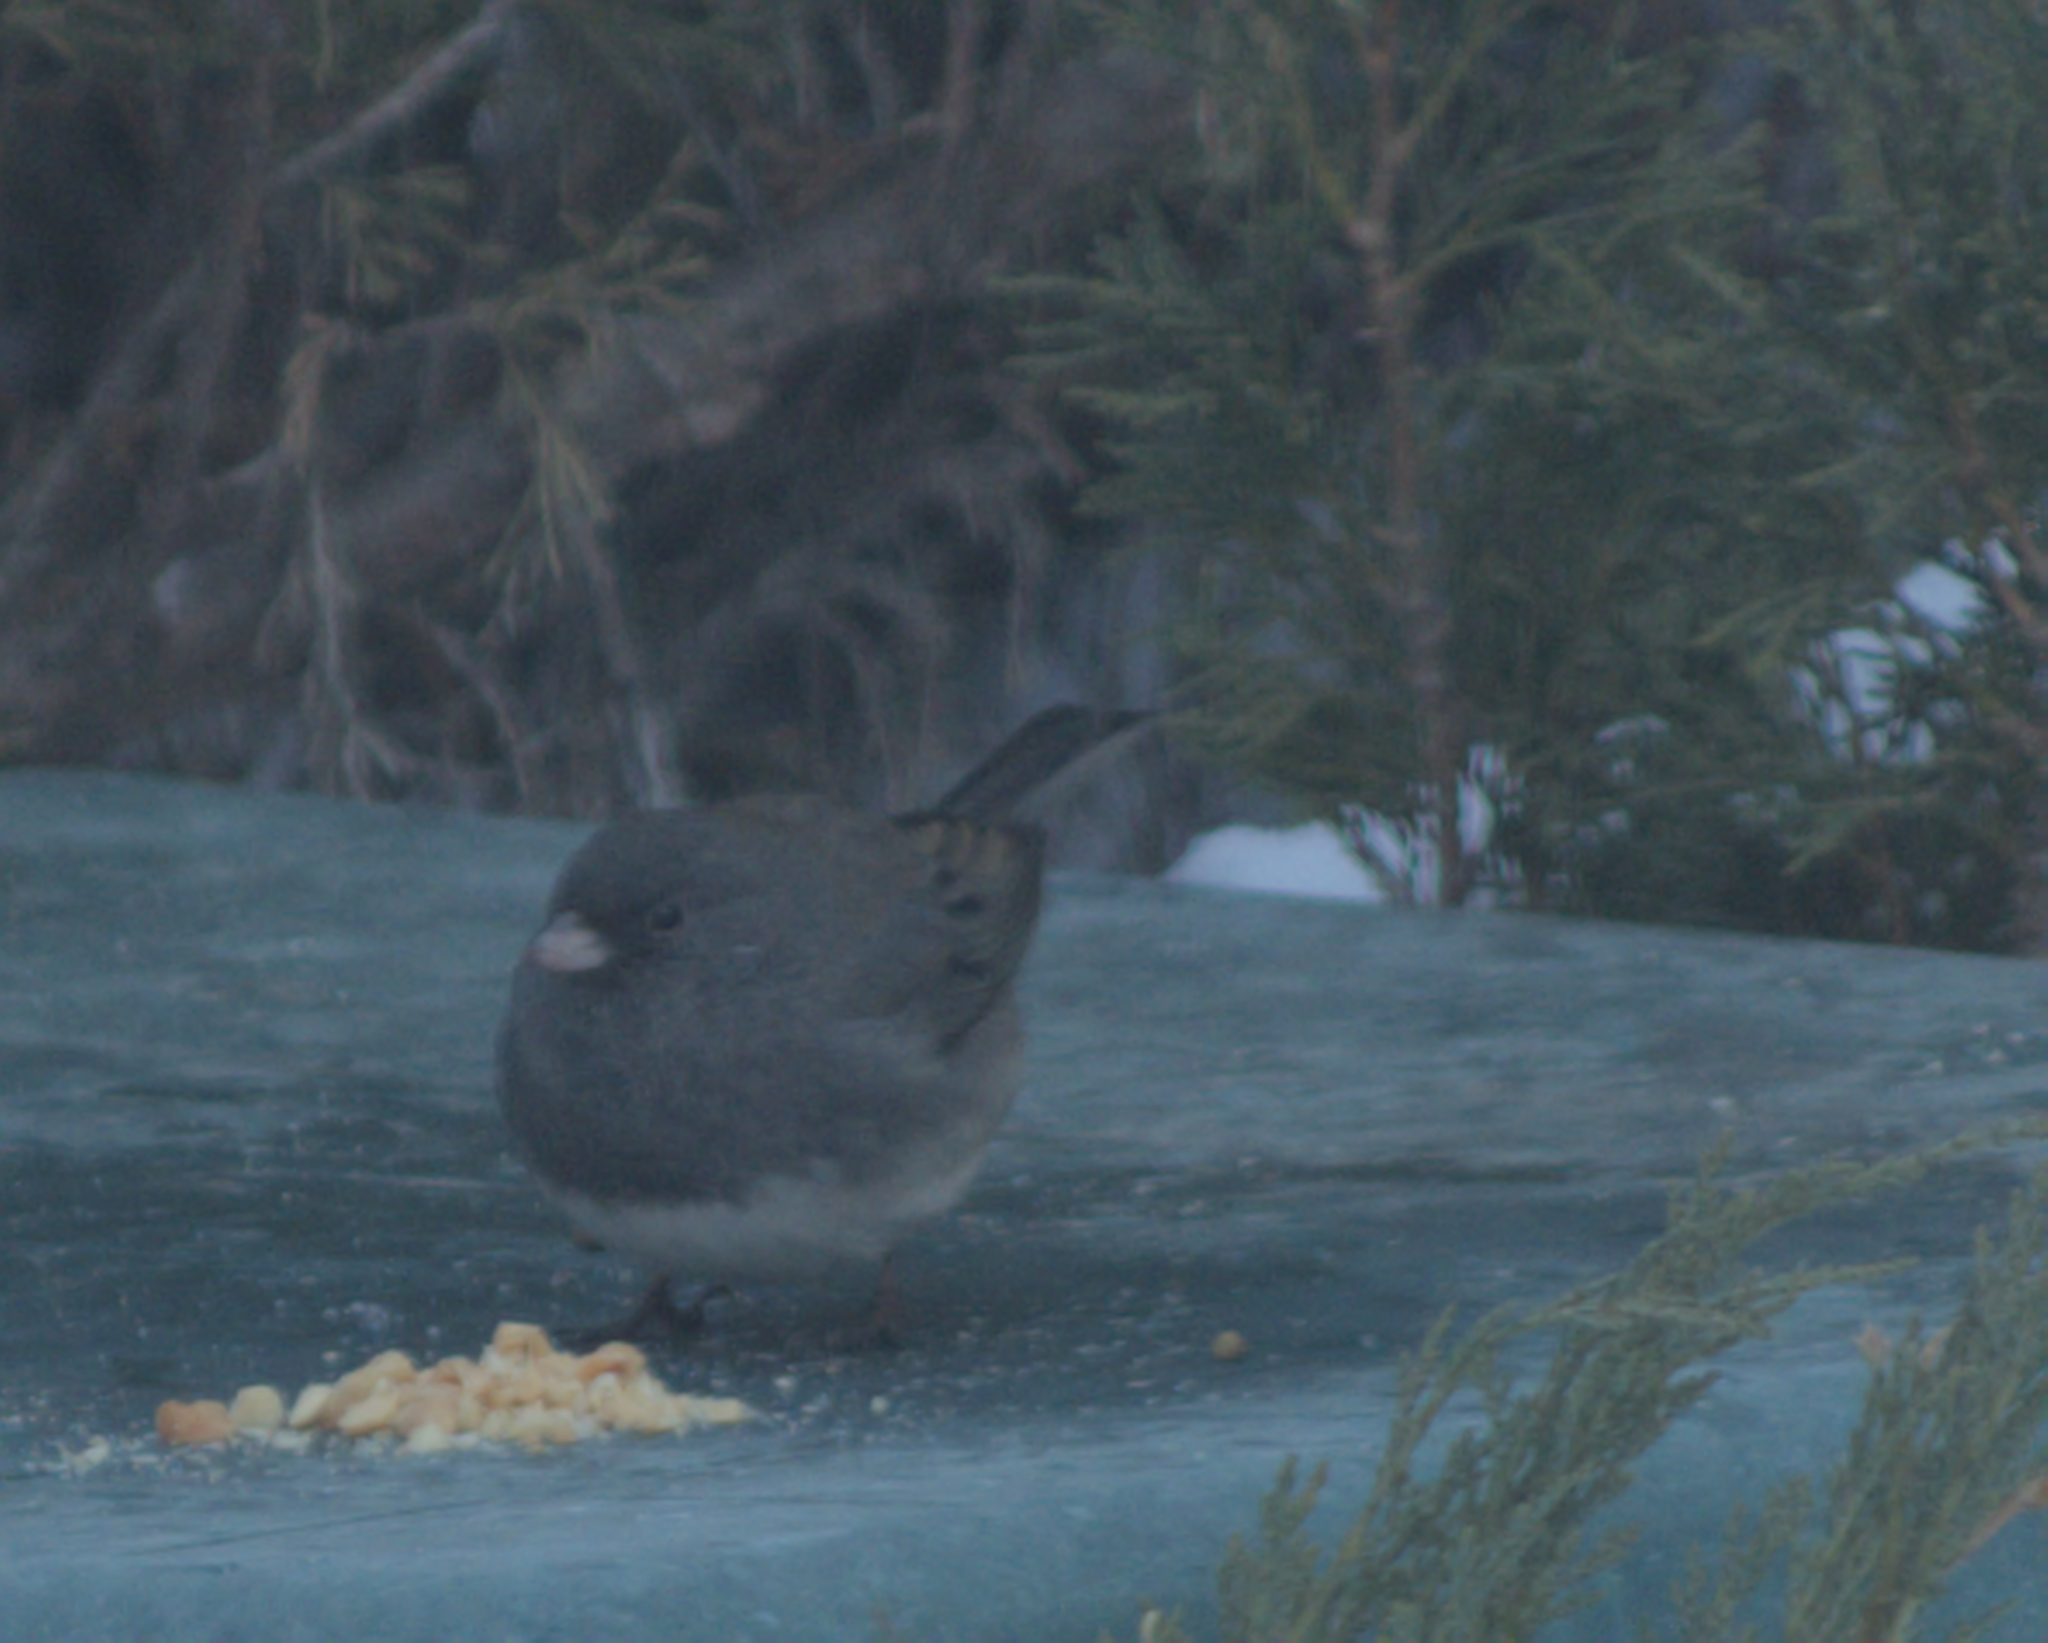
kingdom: Animalia
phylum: Chordata
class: Aves
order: Passeriformes
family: Passerellidae
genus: Junco
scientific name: Junco hyemalis
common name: Dark-eyed junco
